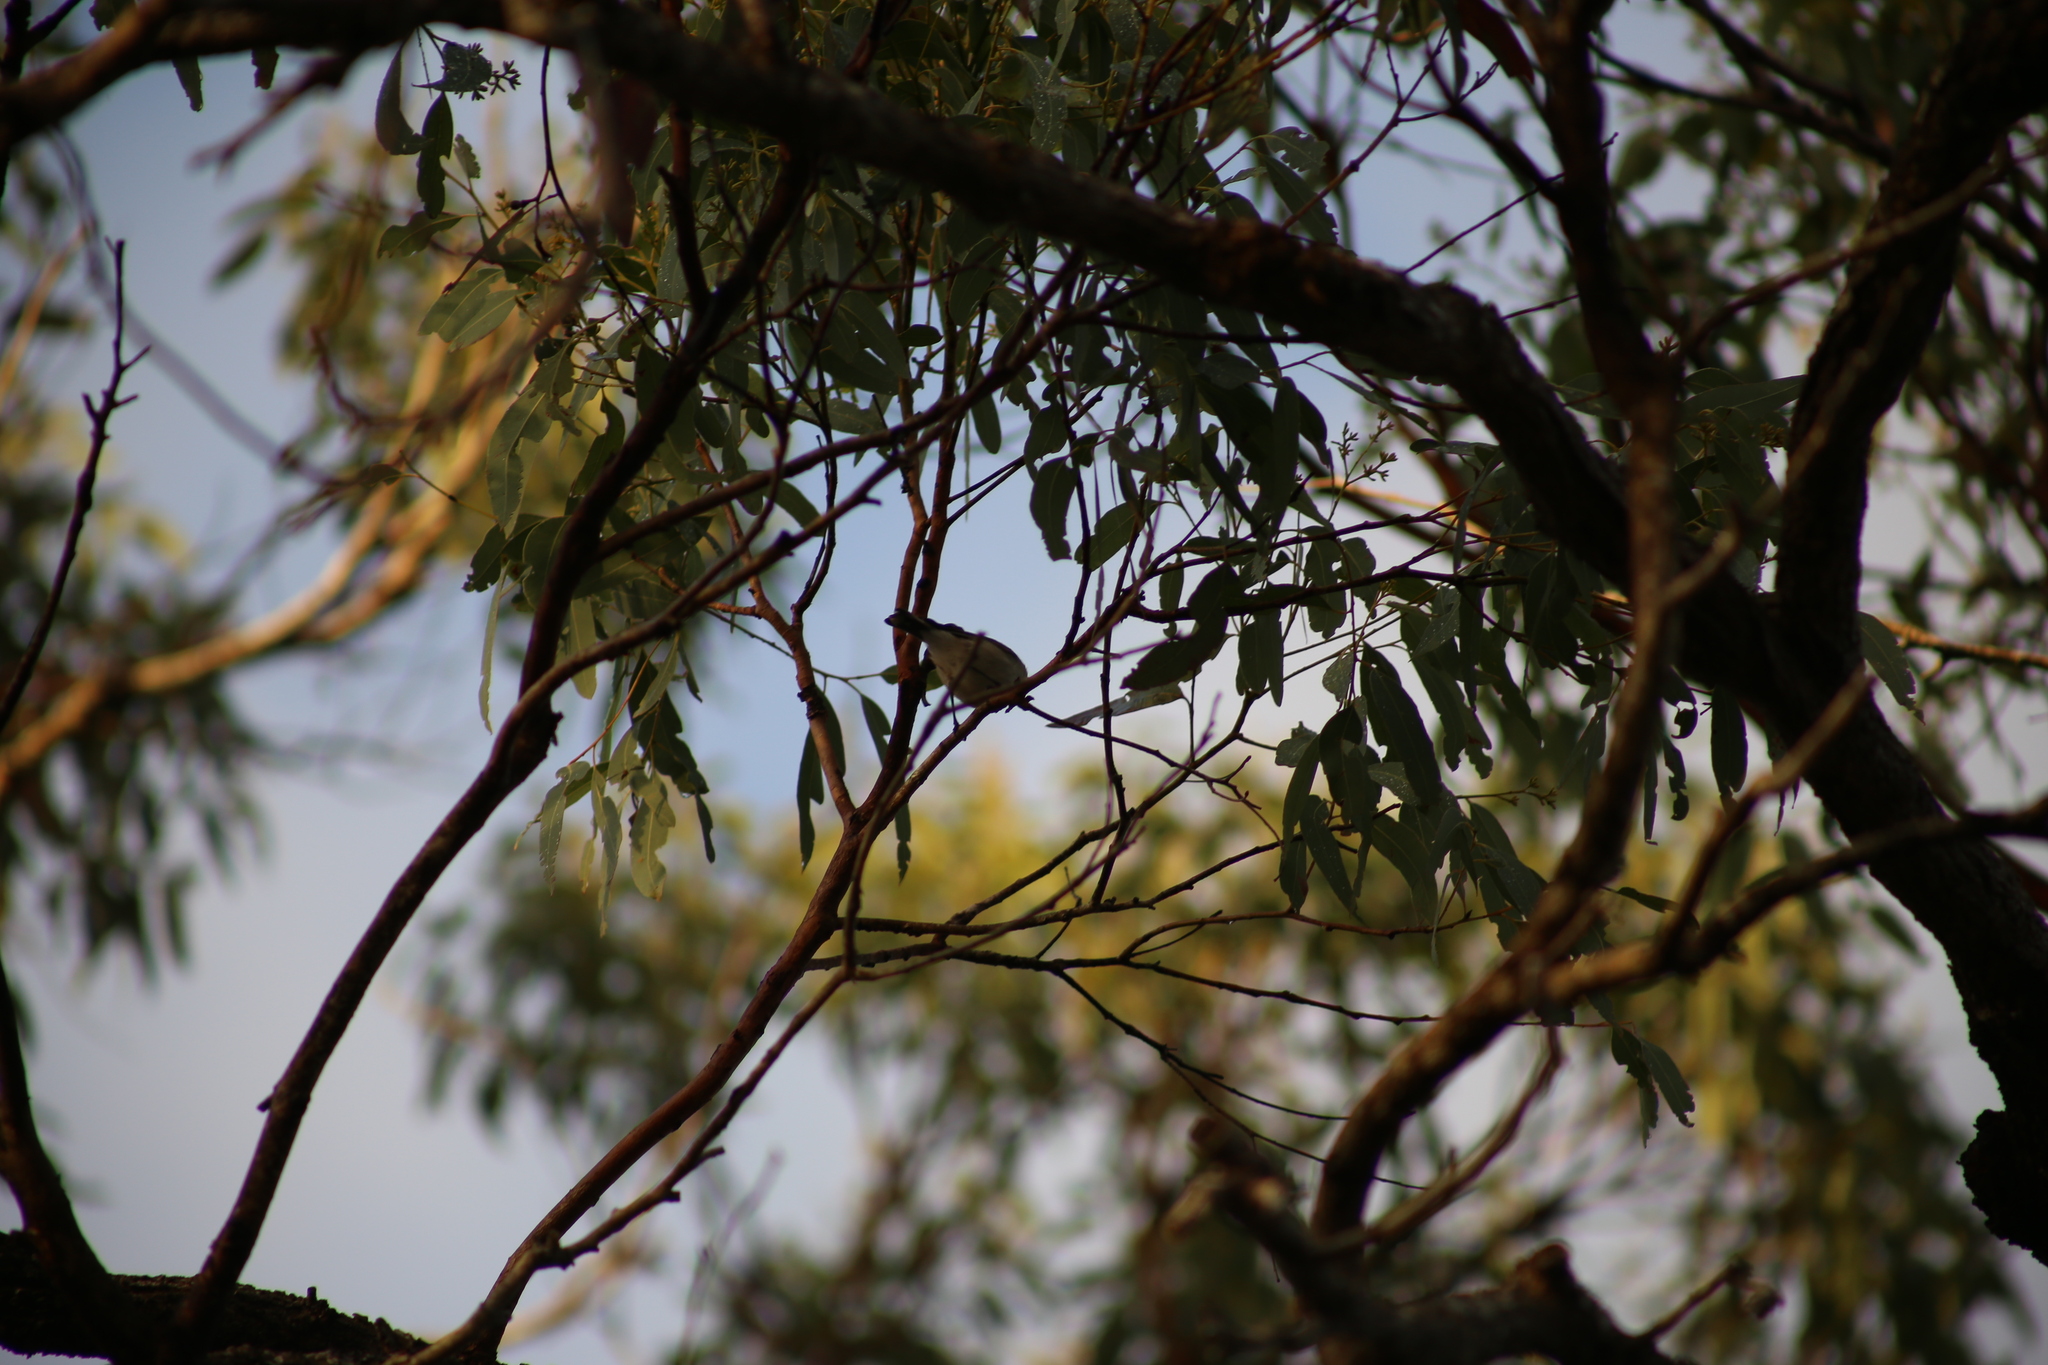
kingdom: Animalia
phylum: Chordata
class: Aves
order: Passeriformes
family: Acanthizidae
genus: Gerygone
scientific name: Gerygone levigaster
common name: Mangrove gerygone
